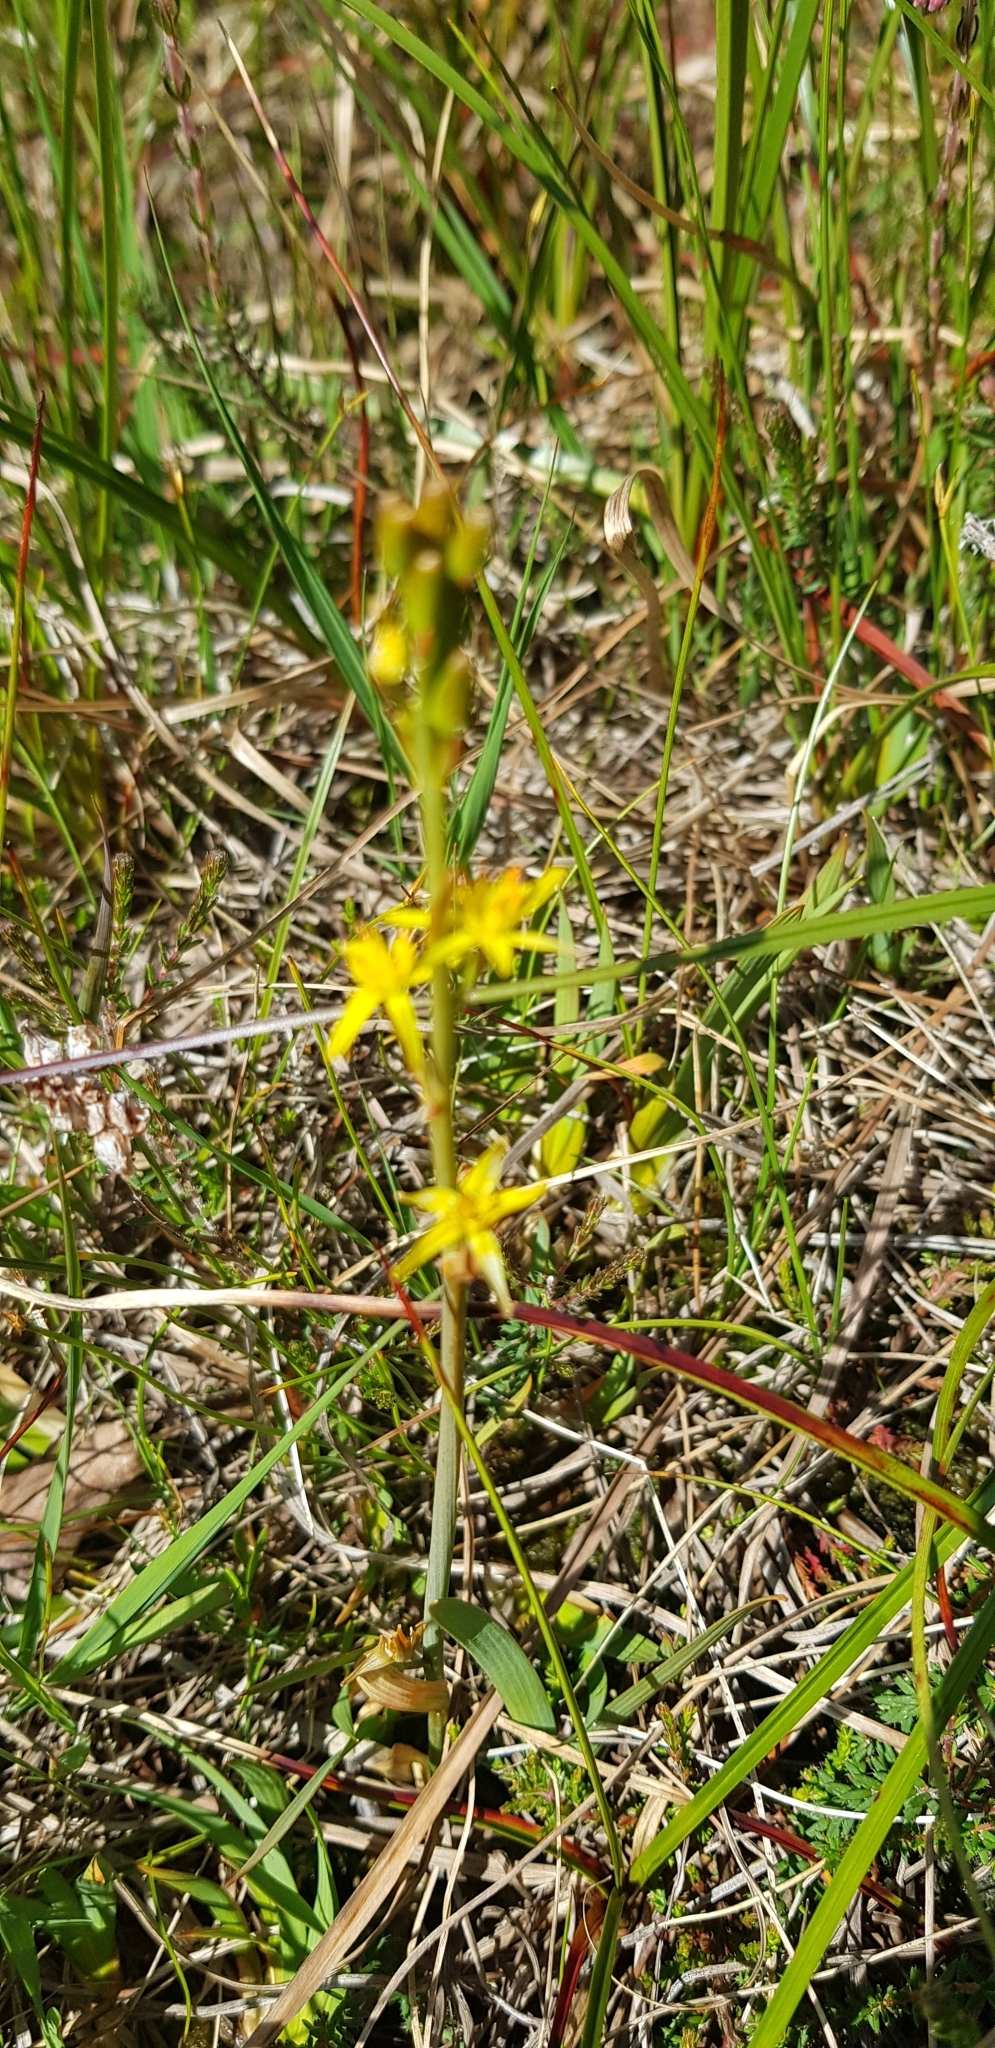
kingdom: Plantae
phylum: Tracheophyta
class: Liliopsida
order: Dioscoreales
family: Nartheciaceae
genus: Narthecium
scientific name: Narthecium ossifragum
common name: Bog asphodel
